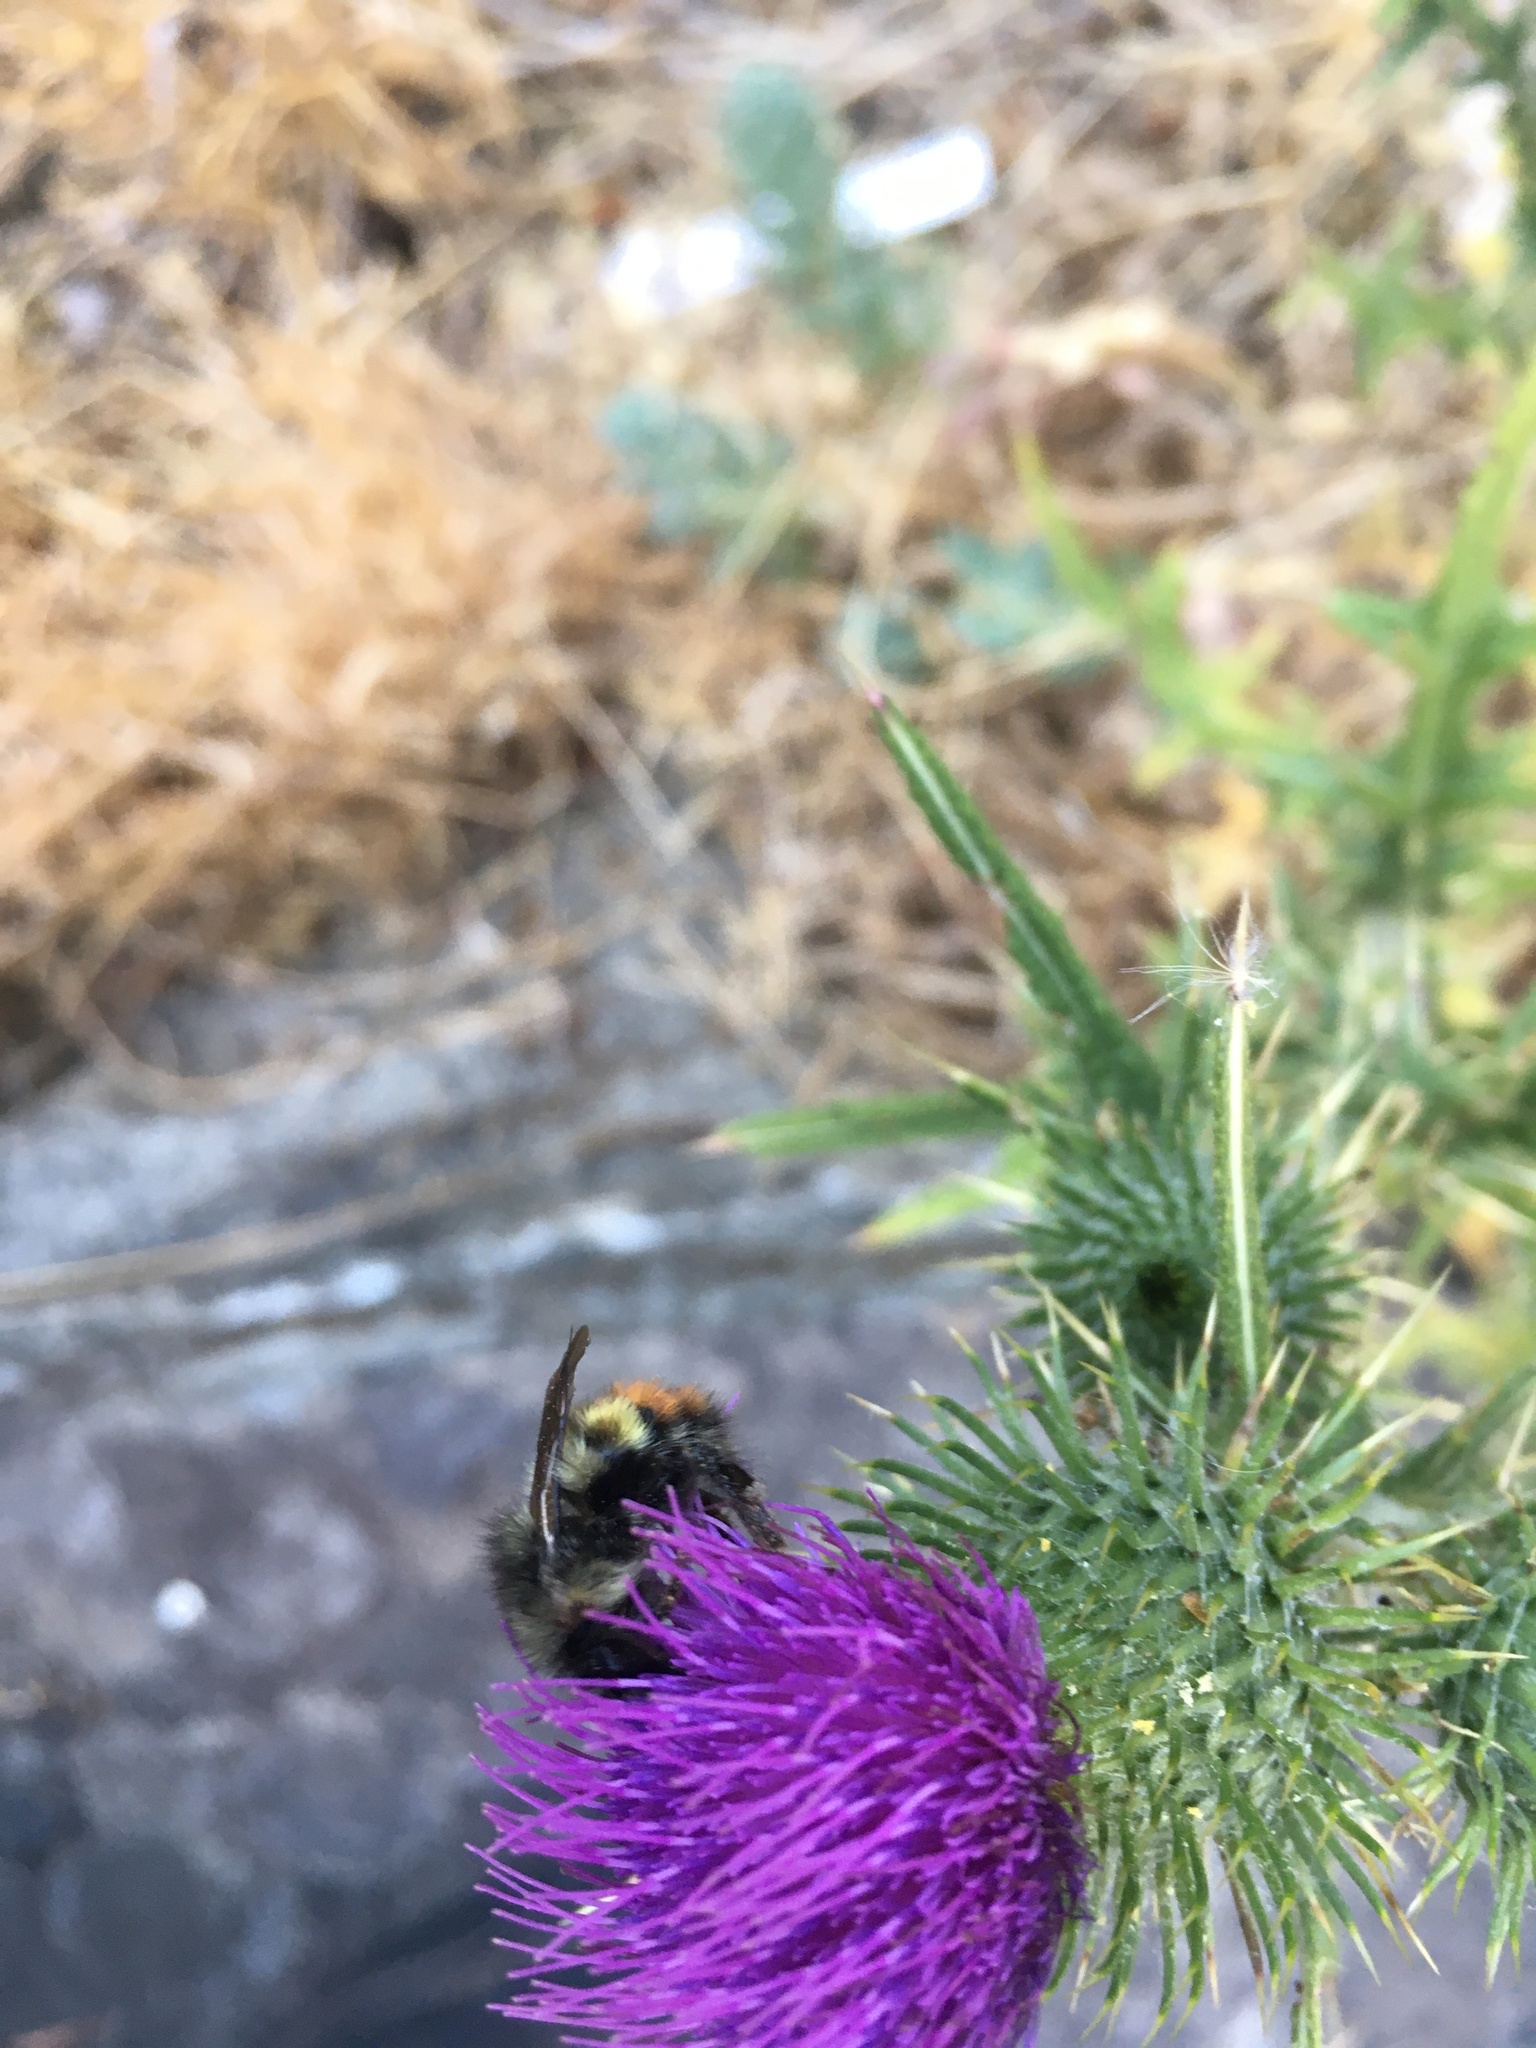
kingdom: Animalia
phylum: Arthropoda
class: Insecta
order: Hymenoptera
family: Apidae
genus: Bombus
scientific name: Bombus flavifrons
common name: Yellow head bumble bee
